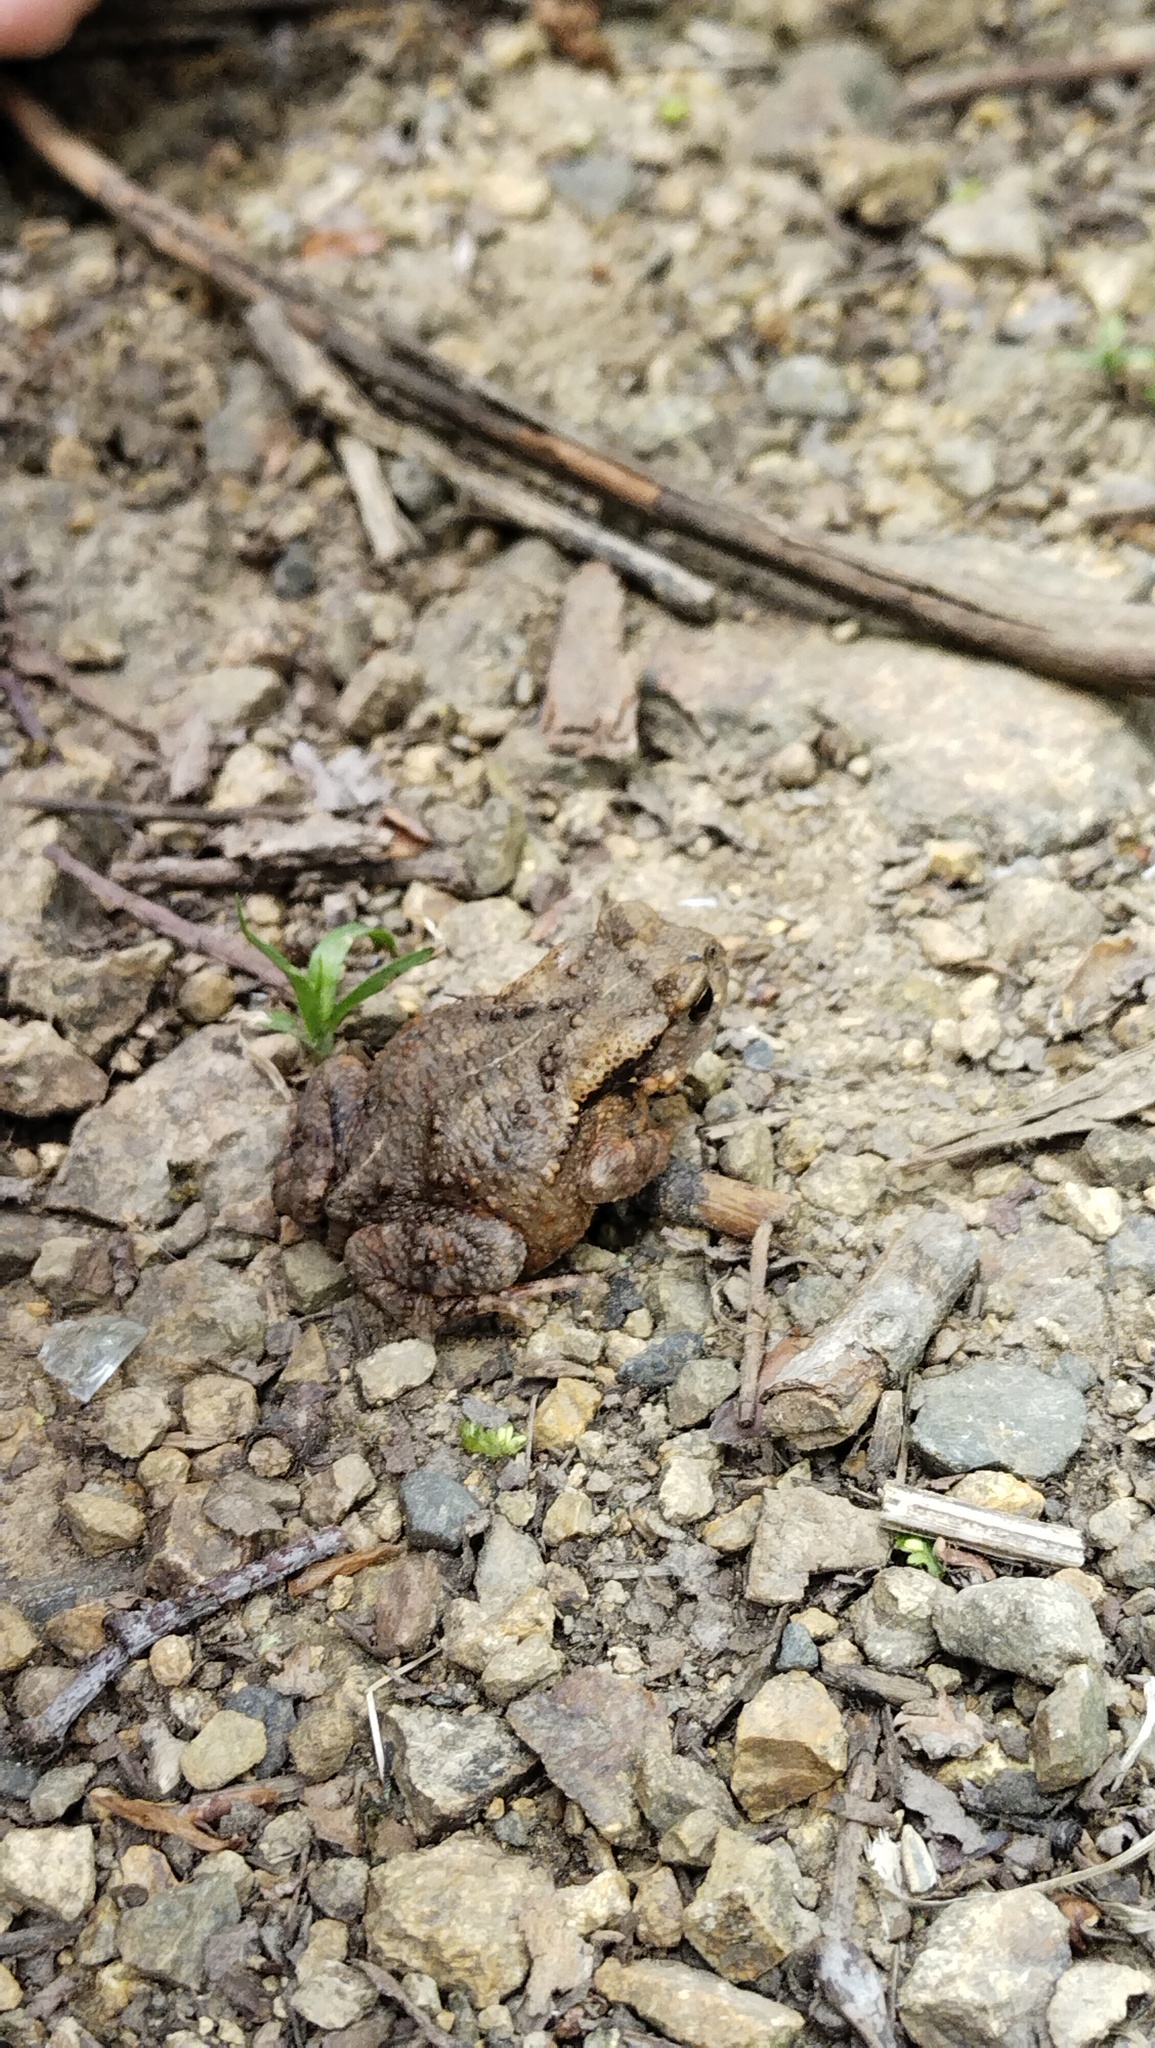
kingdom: Animalia
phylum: Chordata
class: Amphibia
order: Anura
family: Bufonidae
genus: Bufo
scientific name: Bufo gargarizans
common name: Asiatic toad
